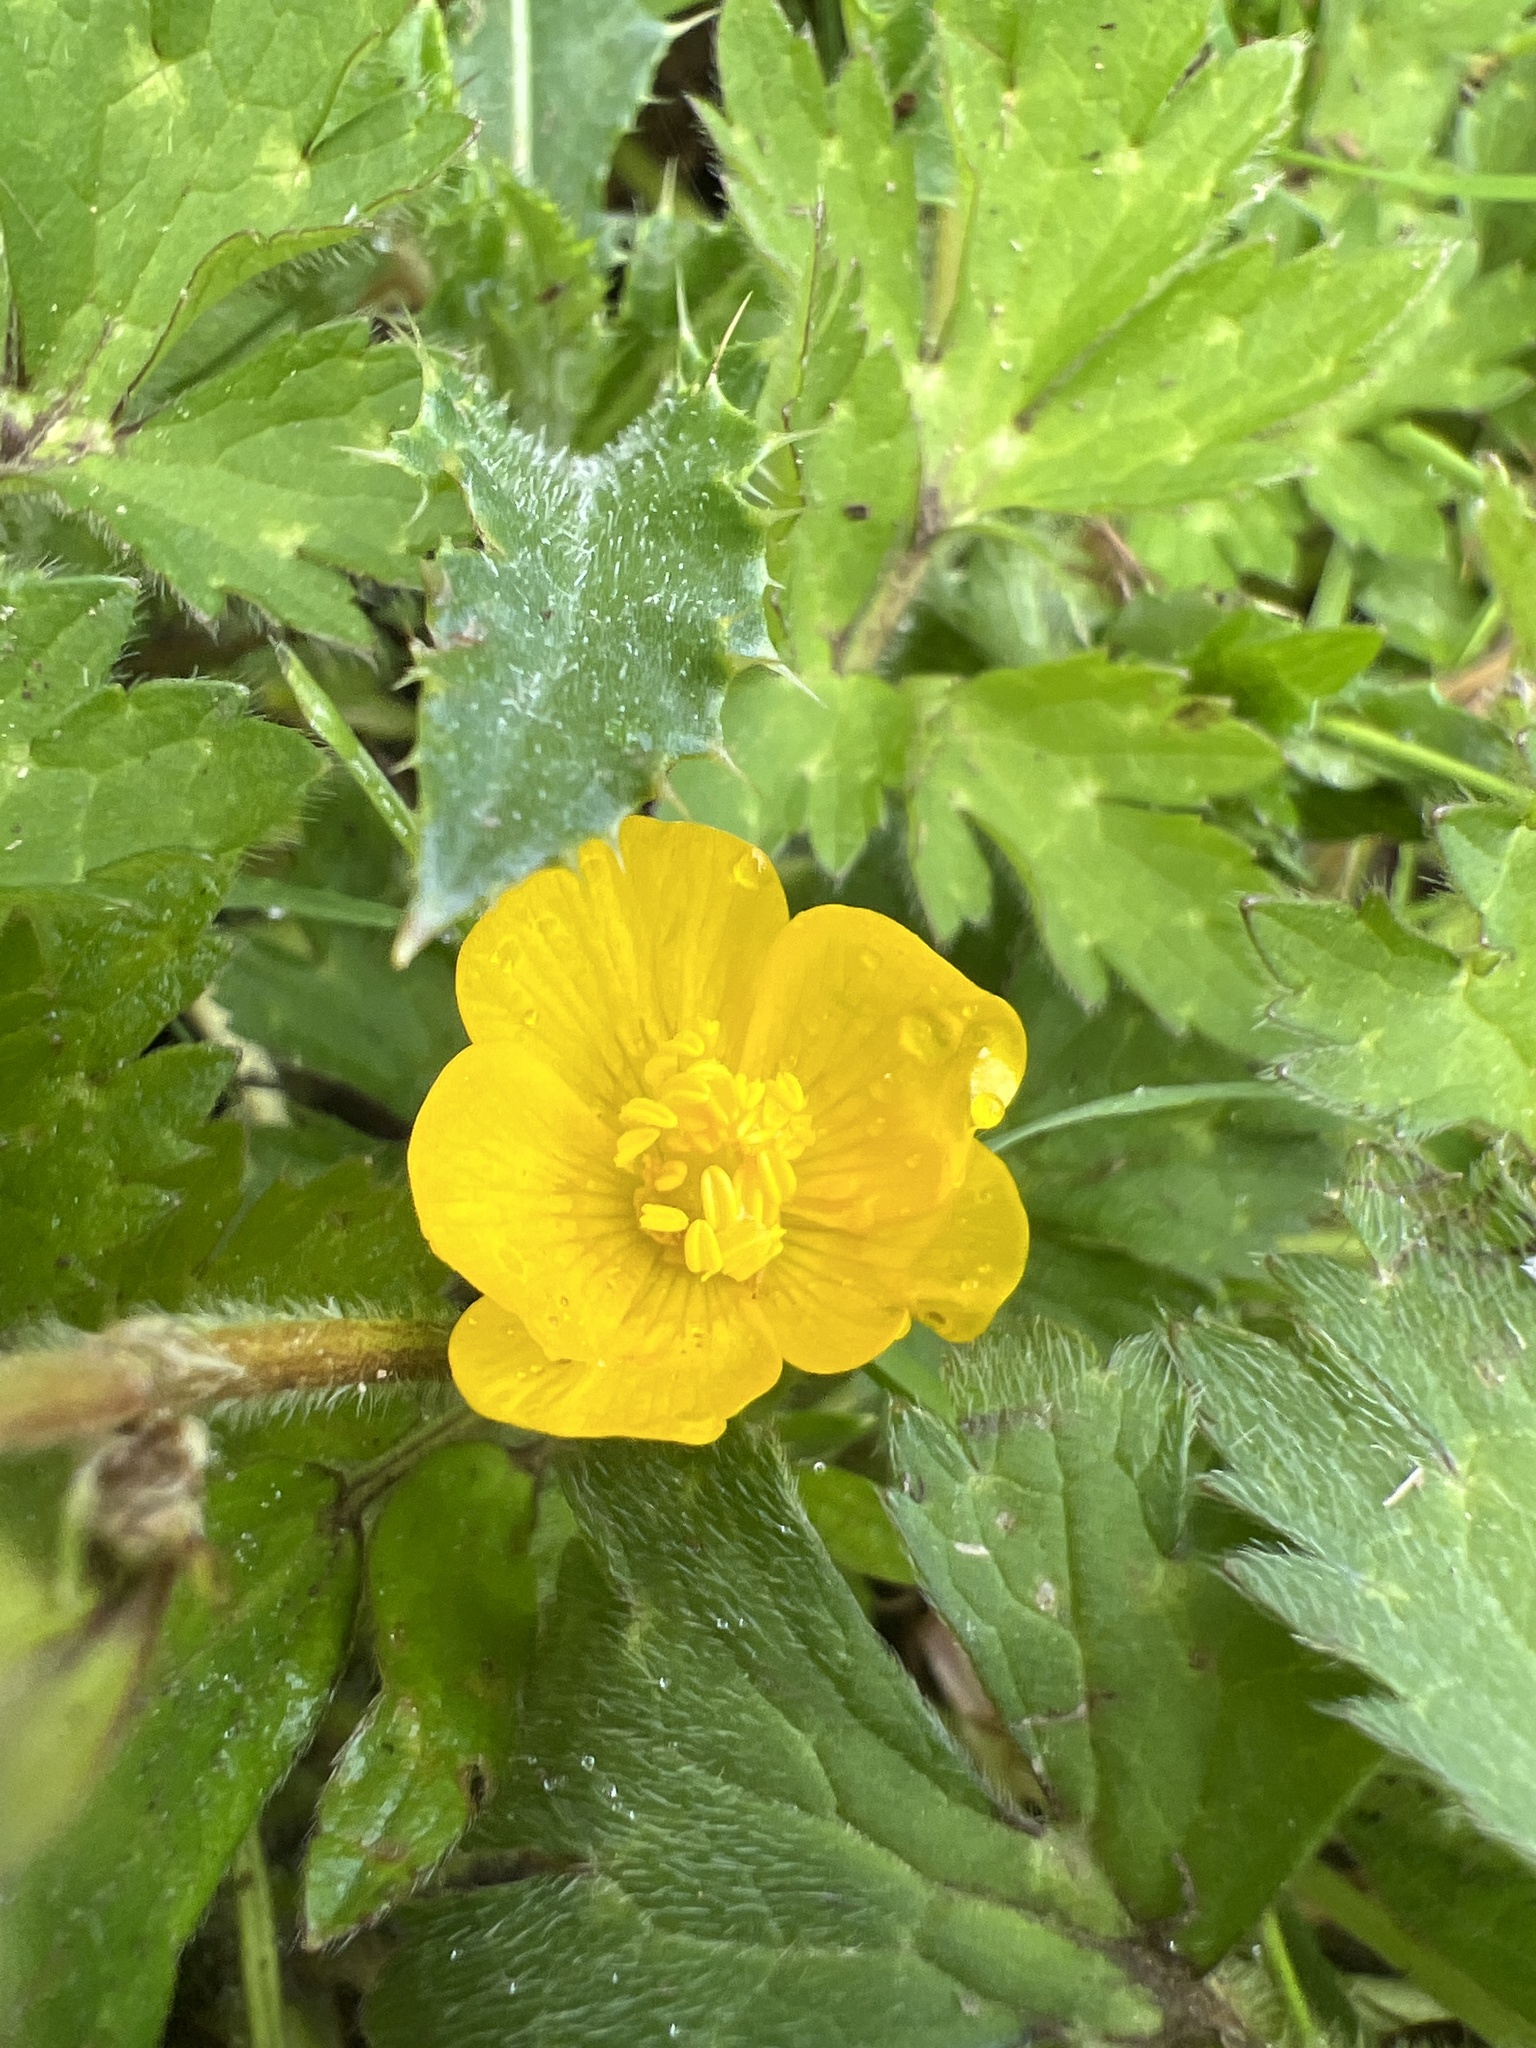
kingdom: Plantae
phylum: Tracheophyta
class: Magnoliopsida
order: Ranunculales
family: Ranunculaceae
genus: Ranunculus
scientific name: Ranunculus repens
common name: Creeping buttercup
